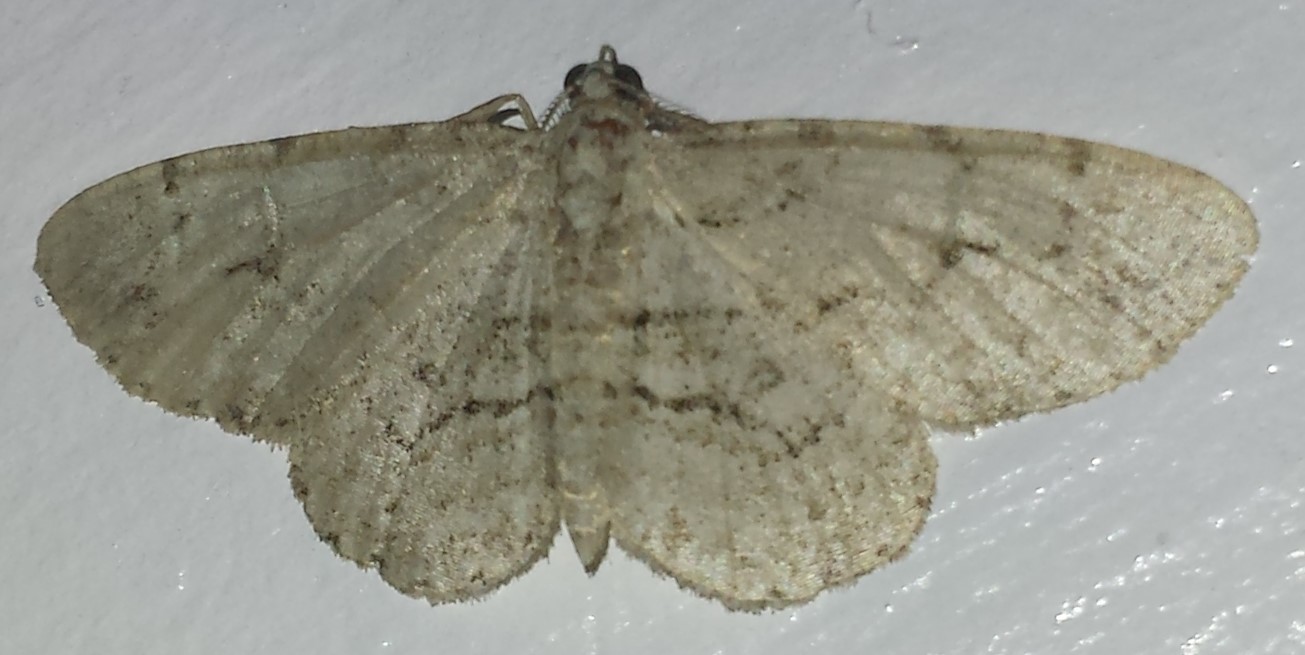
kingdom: Animalia
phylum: Arthropoda
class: Insecta
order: Lepidoptera
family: Geometridae
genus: Iridopsis
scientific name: Iridopsis larvaria
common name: Bent-line gray
